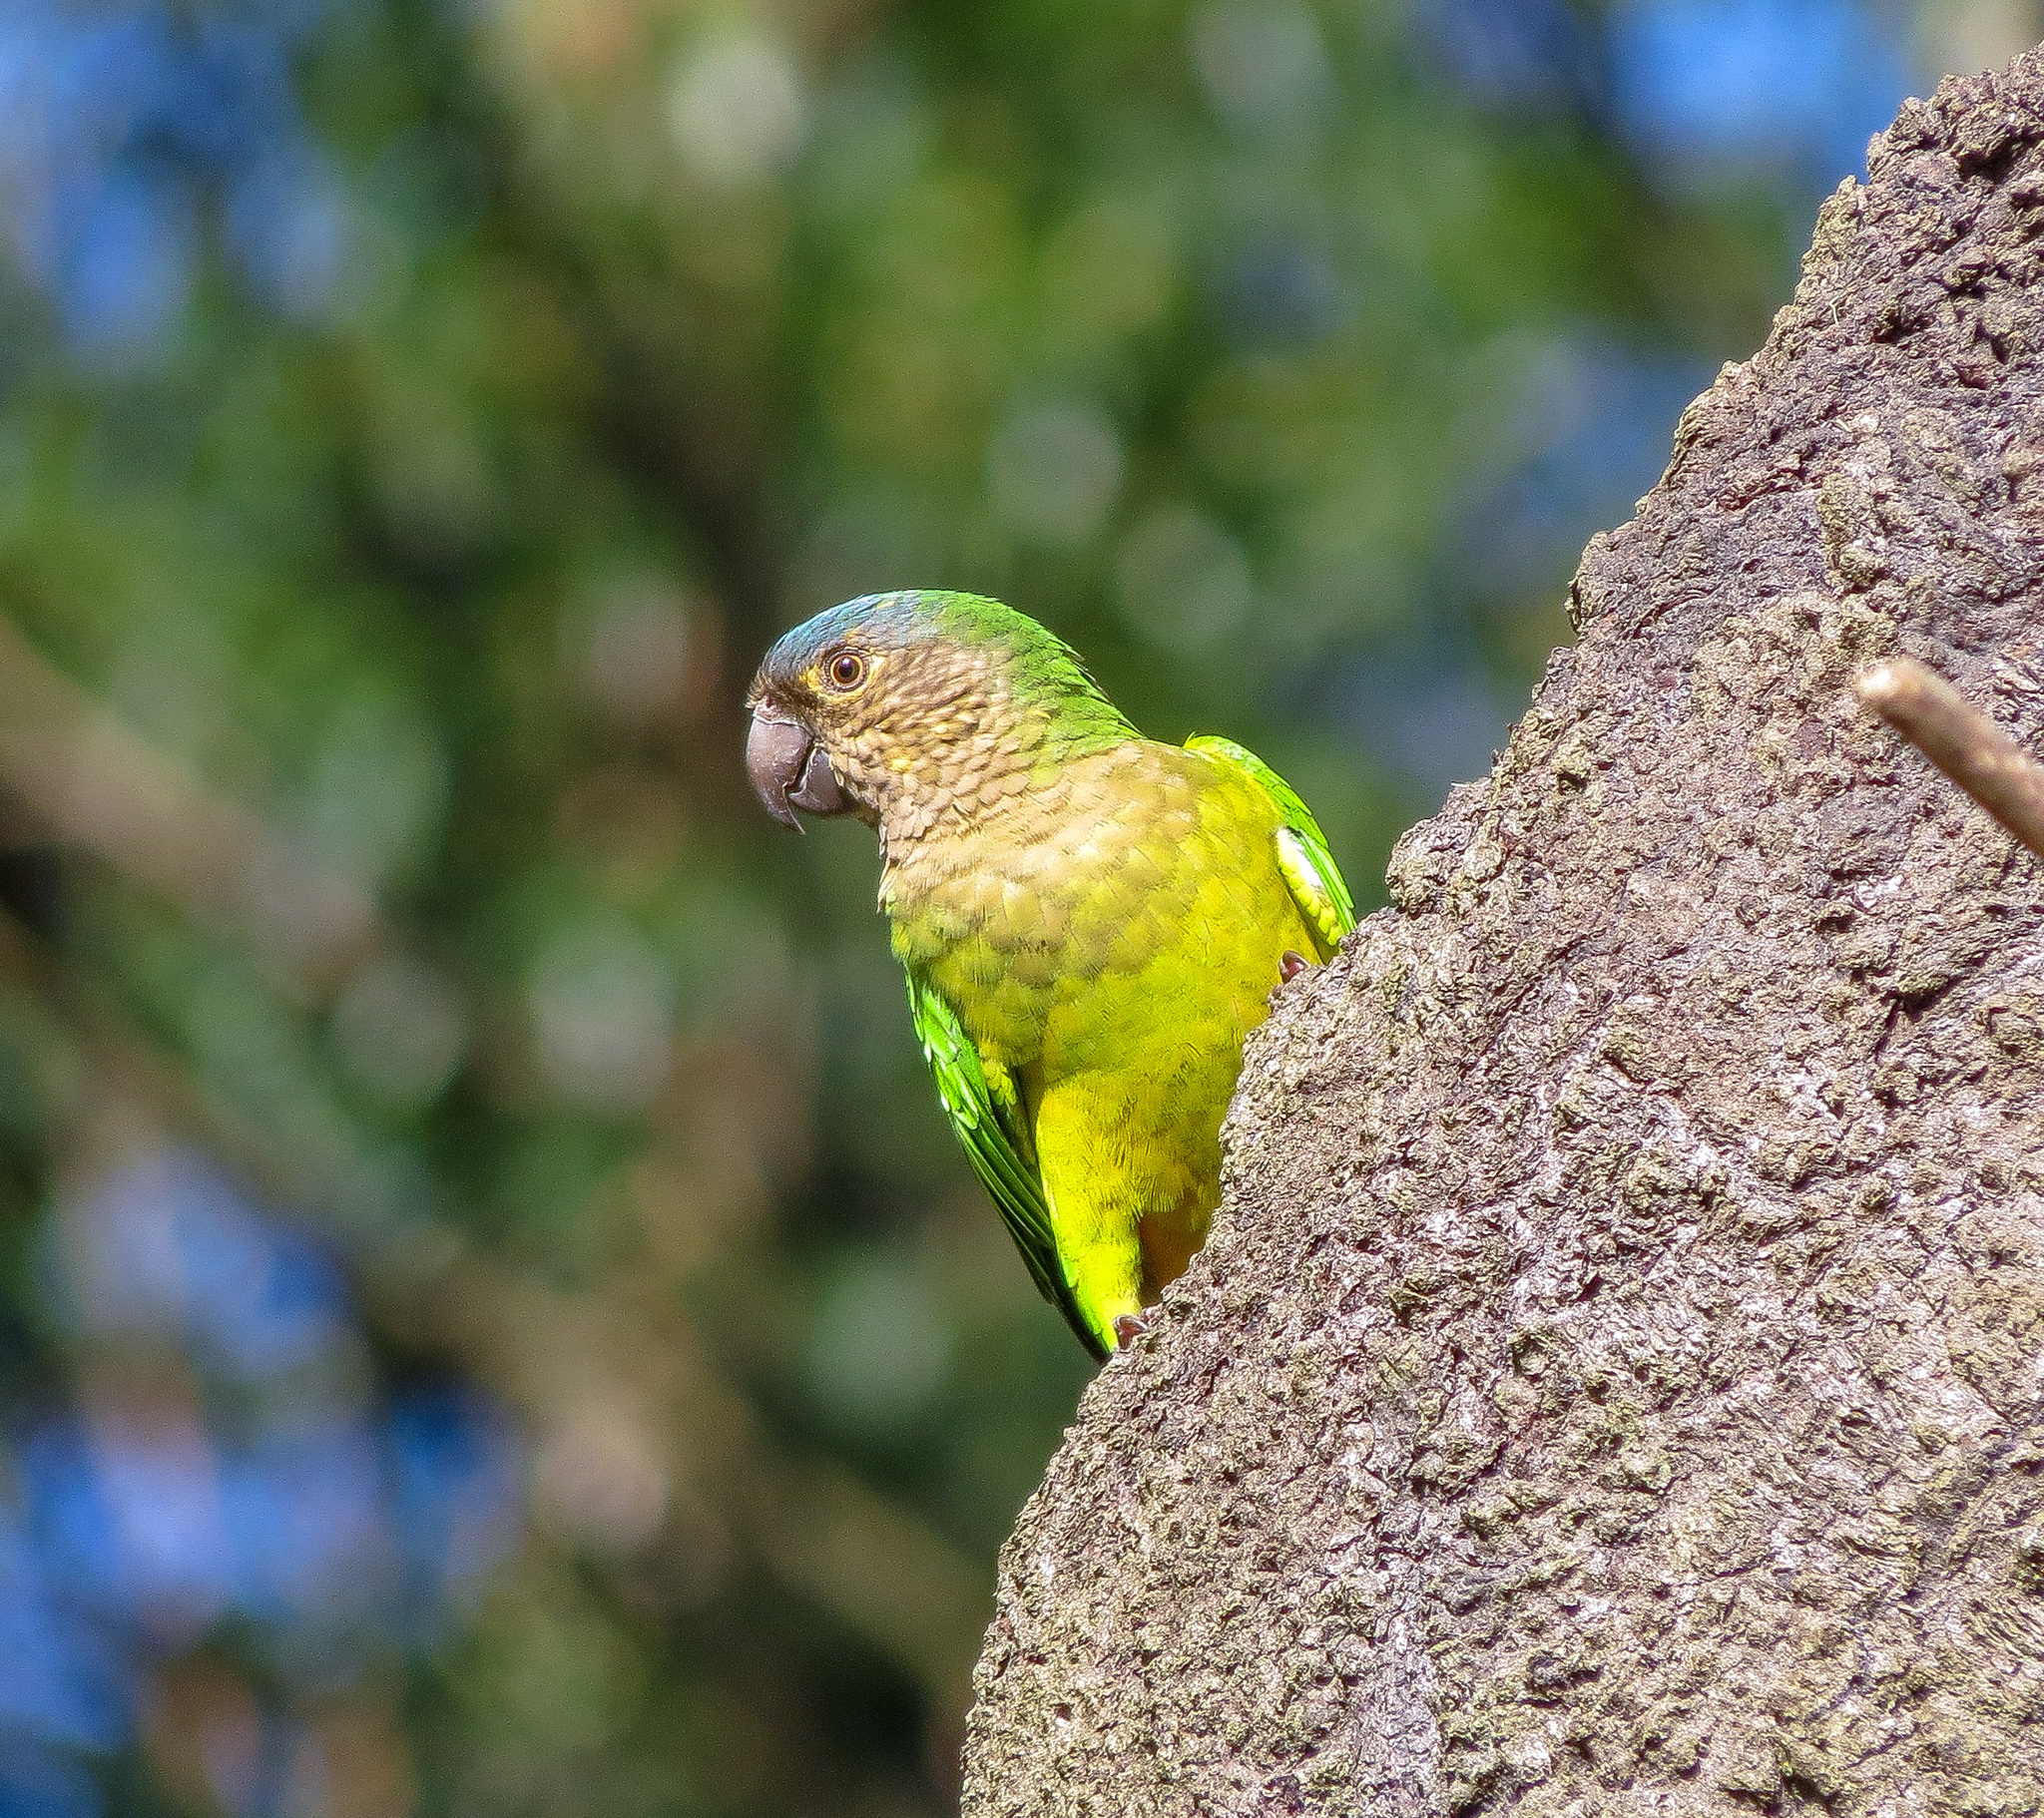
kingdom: Animalia
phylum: Chordata
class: Aves
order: Psittaciformes
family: Psittacidae
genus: Aratinga
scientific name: Aratinga pertinax
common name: Brown-throated parakeet
